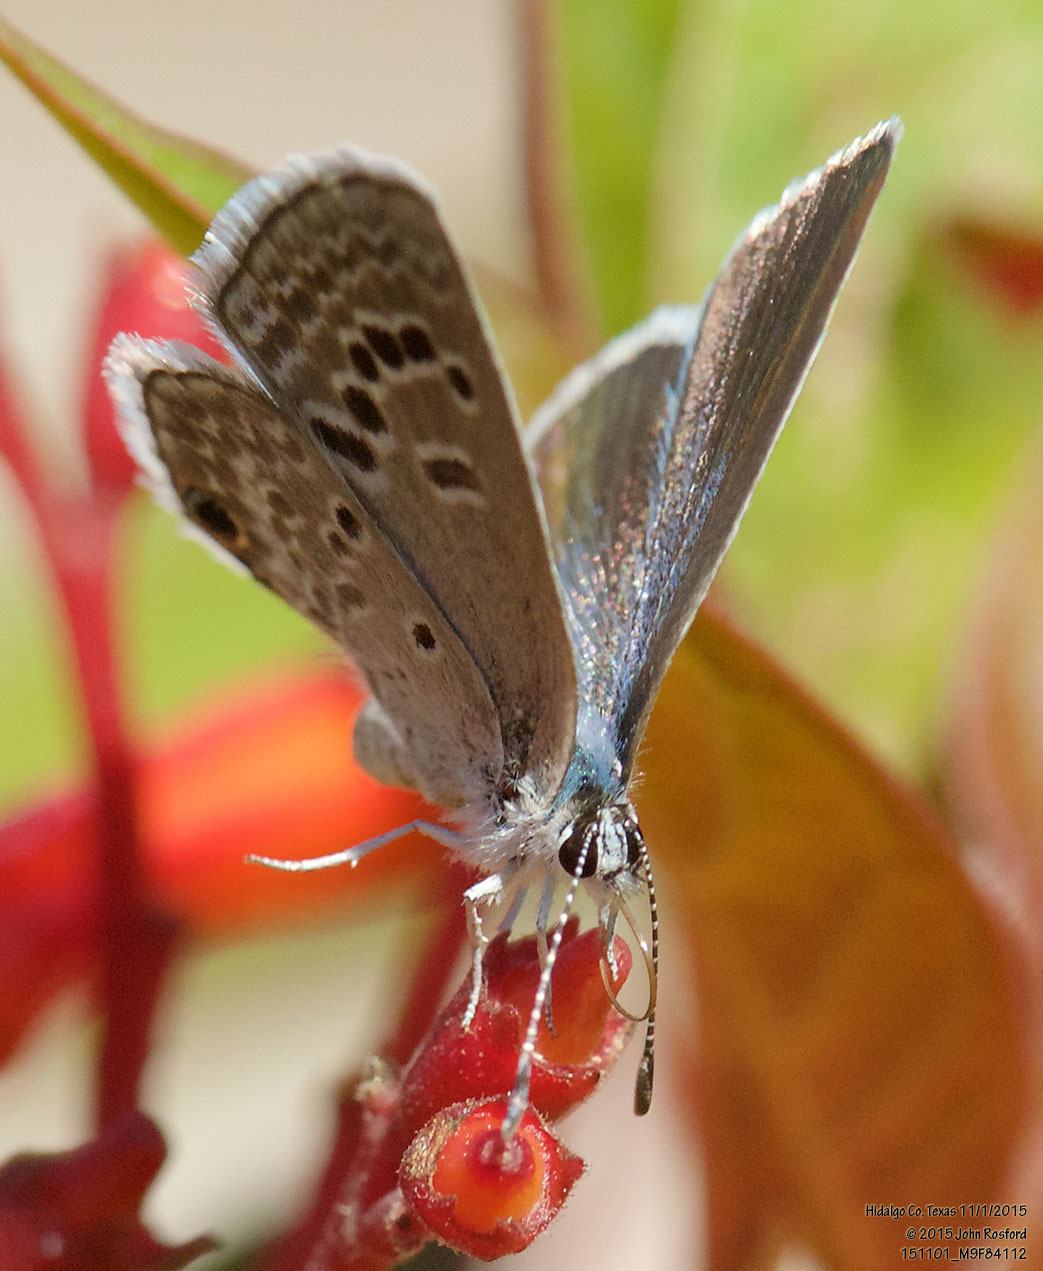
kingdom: Animalia
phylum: Arthropoda
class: Insecta
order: Lepidoptera
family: Lycaenidae
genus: Echinargus
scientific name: Echinargus isola
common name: Reakirt's blue
